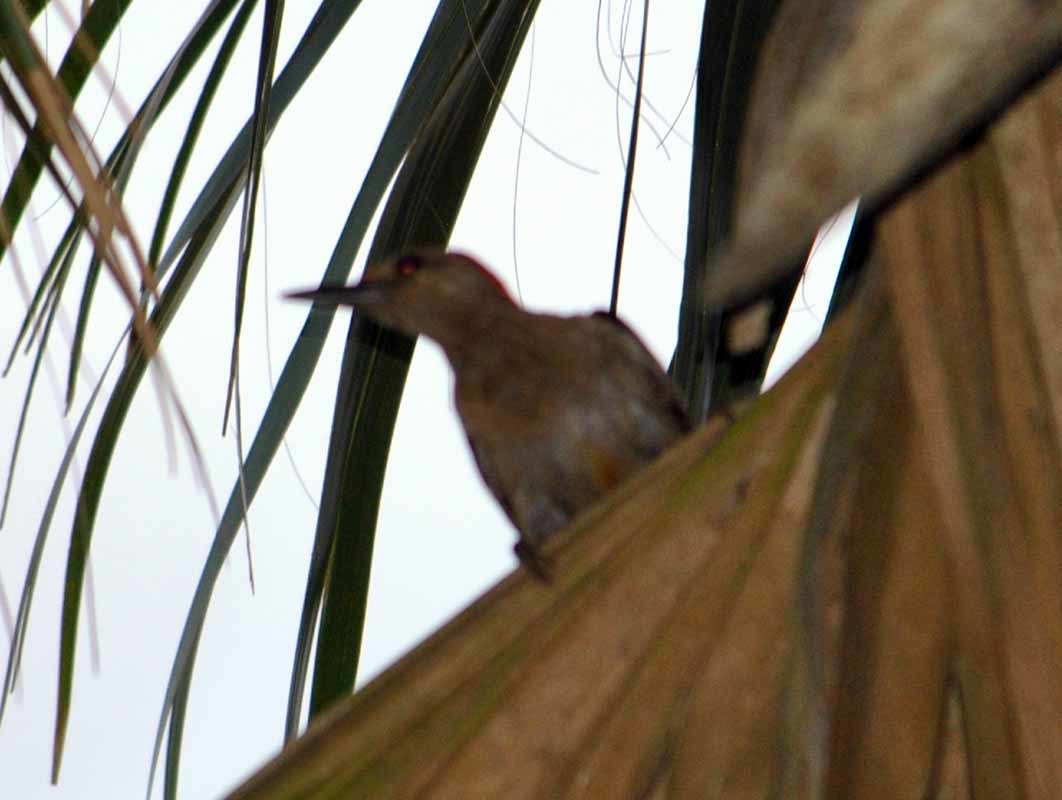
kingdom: Animalia
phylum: Chordata
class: Aves
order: Piciformes
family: Picidae
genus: Melanerpes
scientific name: Melanerpes aurifrons
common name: Golden-fronted woodpecker
